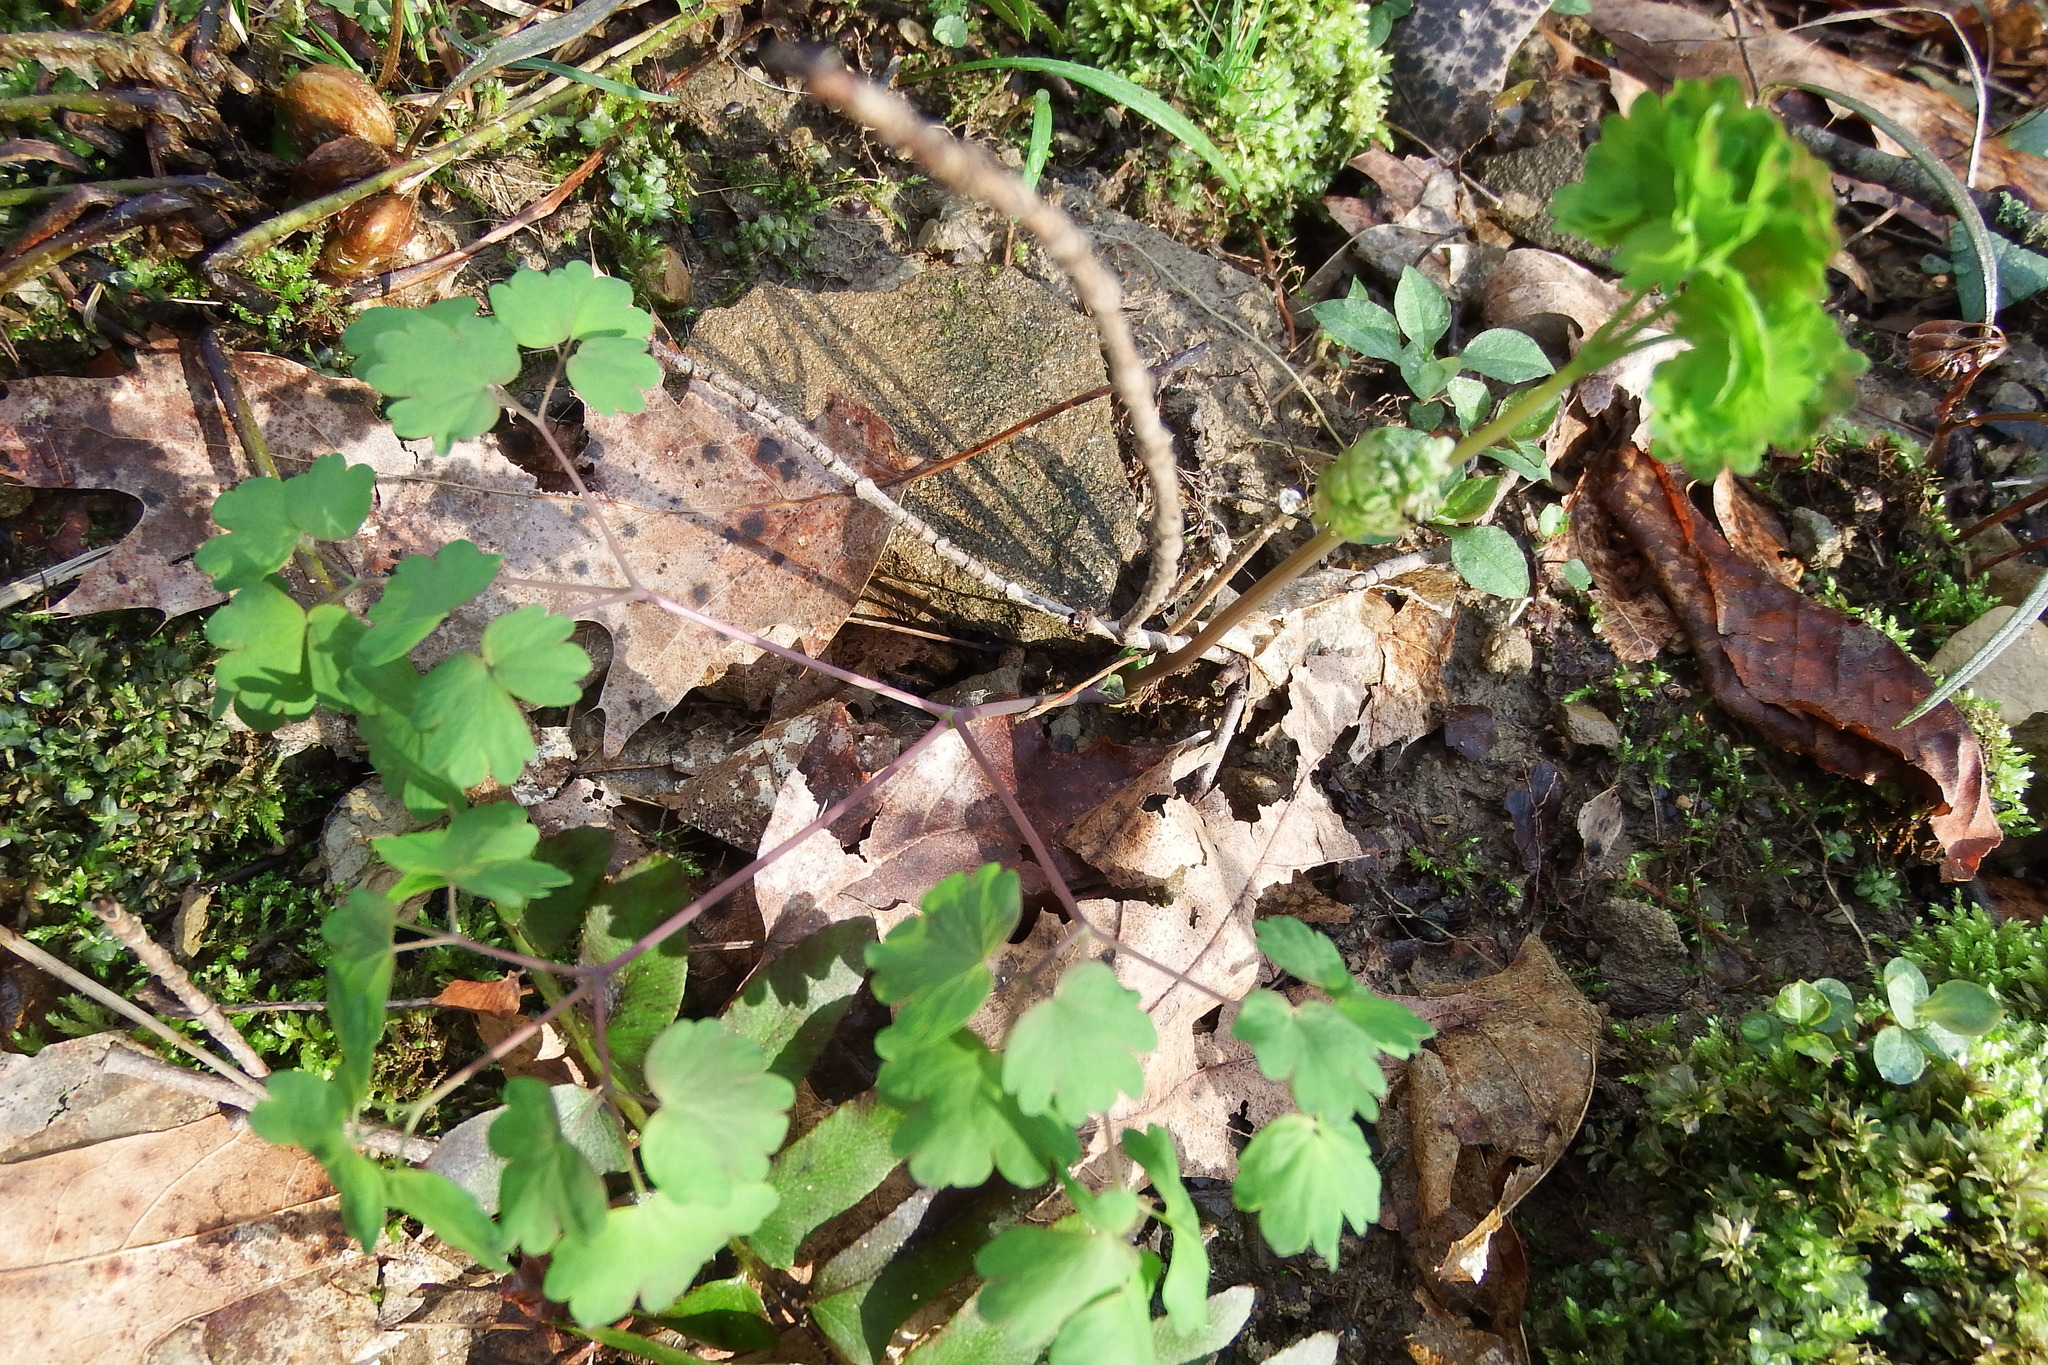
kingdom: Plantae
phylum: Tracheophyta
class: Magnoliopsida
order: Ranunculales
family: Ranunculaceae
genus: Thalictrum
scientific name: Thalictrum dioicum
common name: Early meadow-rue
